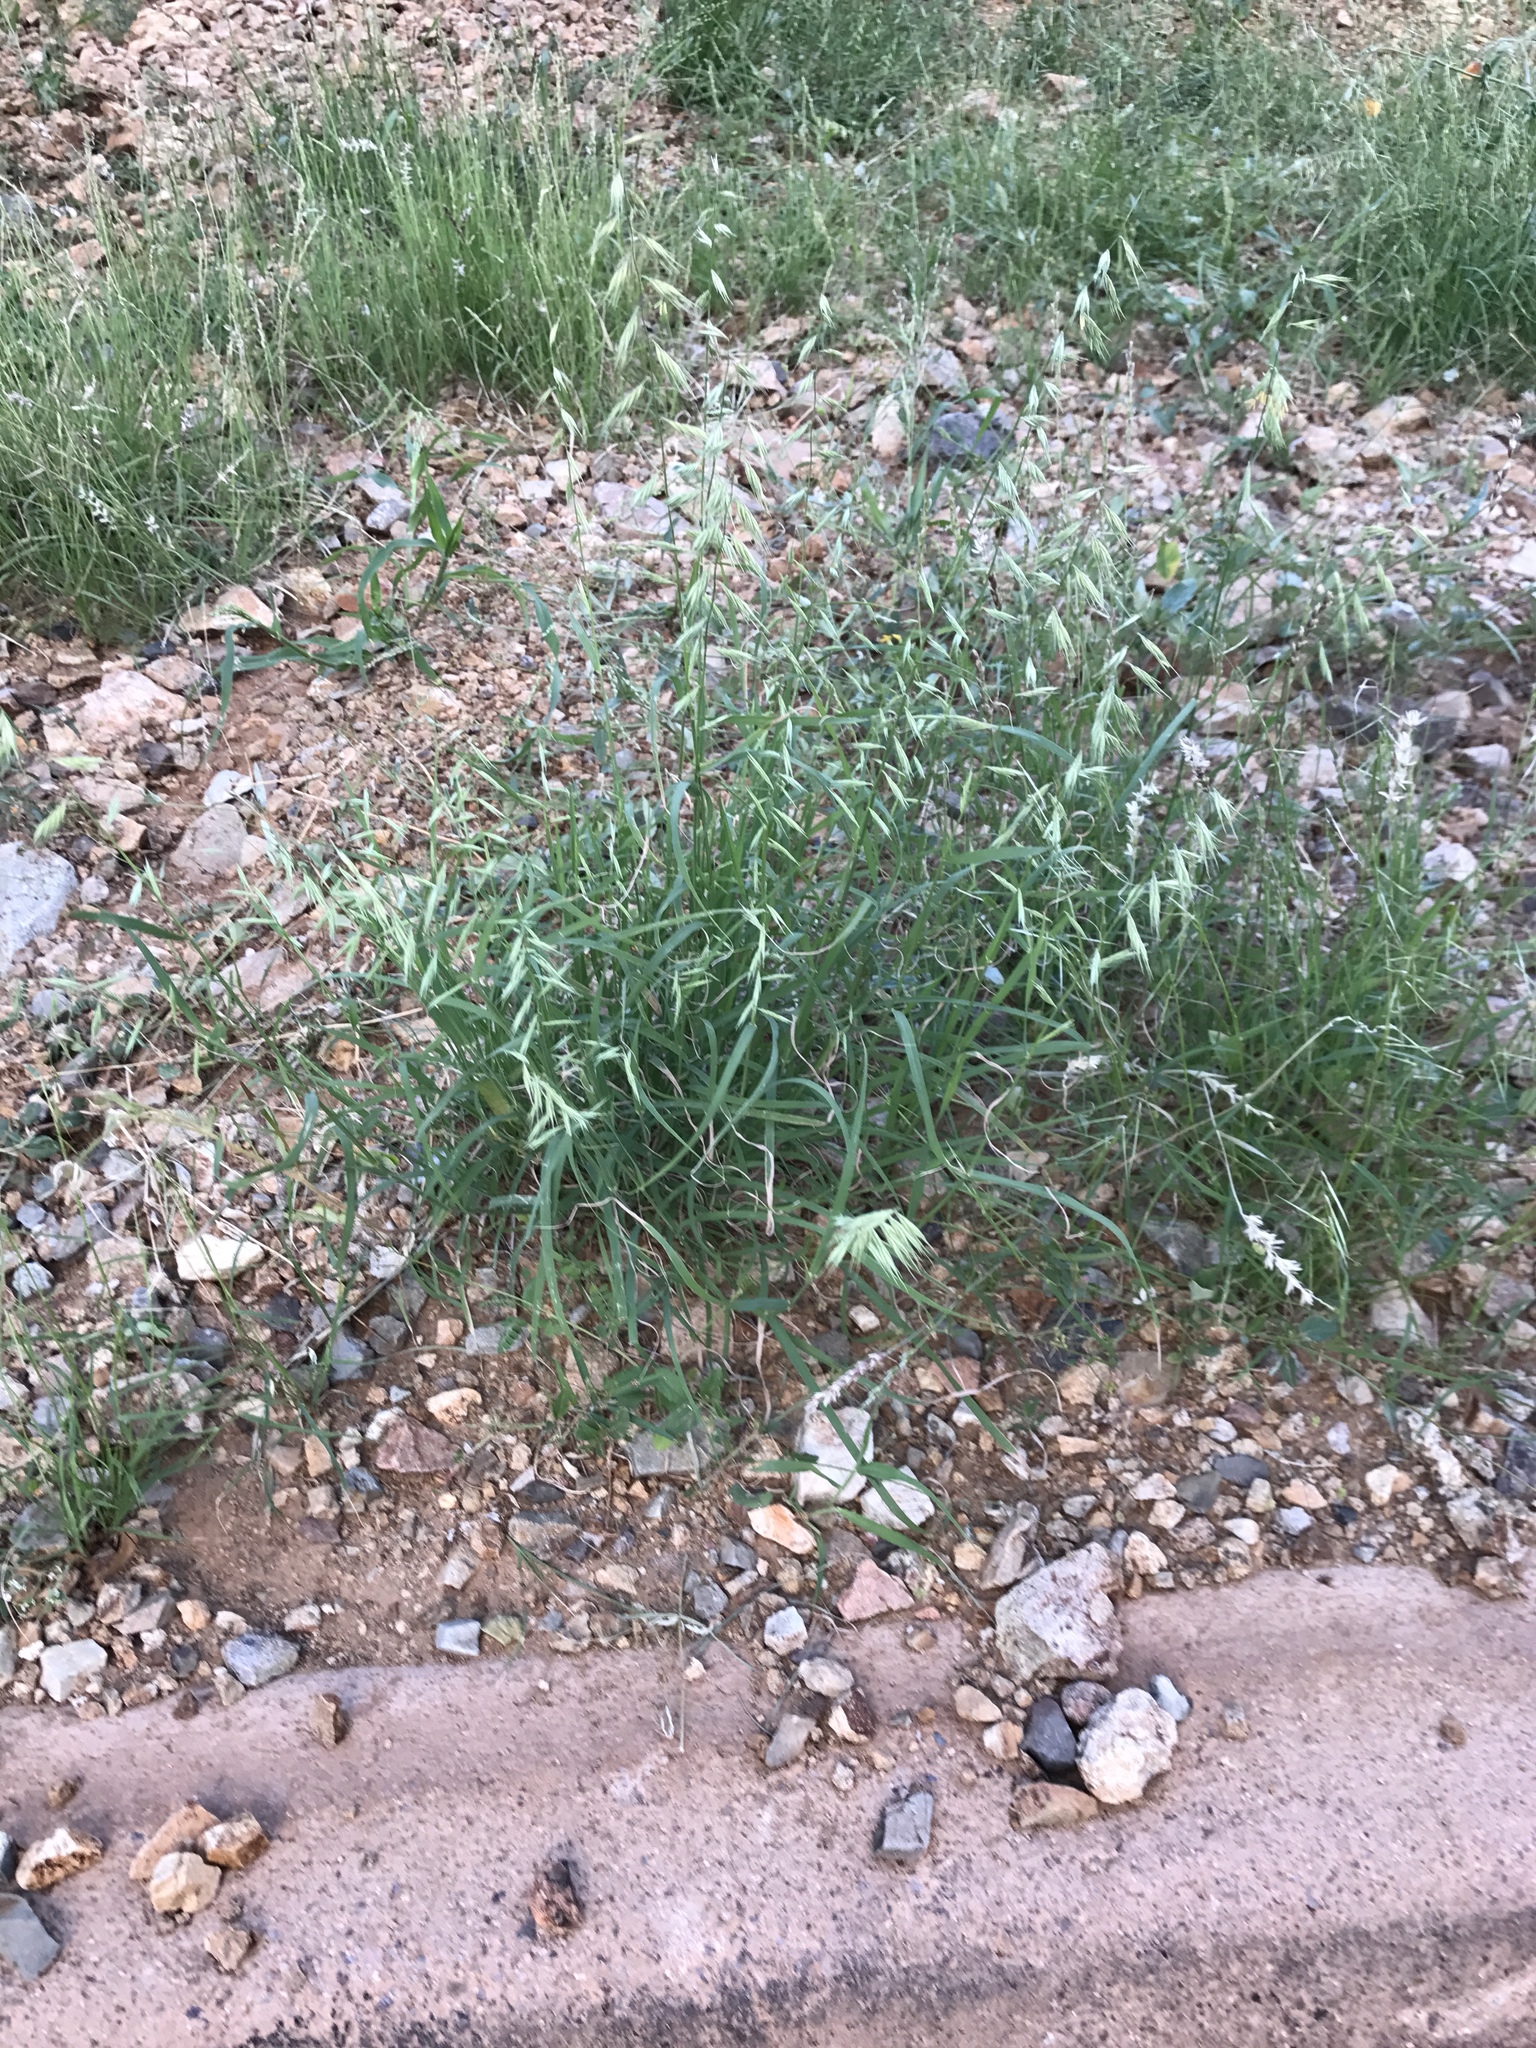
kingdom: Plantae
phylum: Tracheophyta
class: Liliopsida
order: Poales
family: Poaceae
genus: Bouteloua
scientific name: Bouteloua repens
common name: Slender grama
